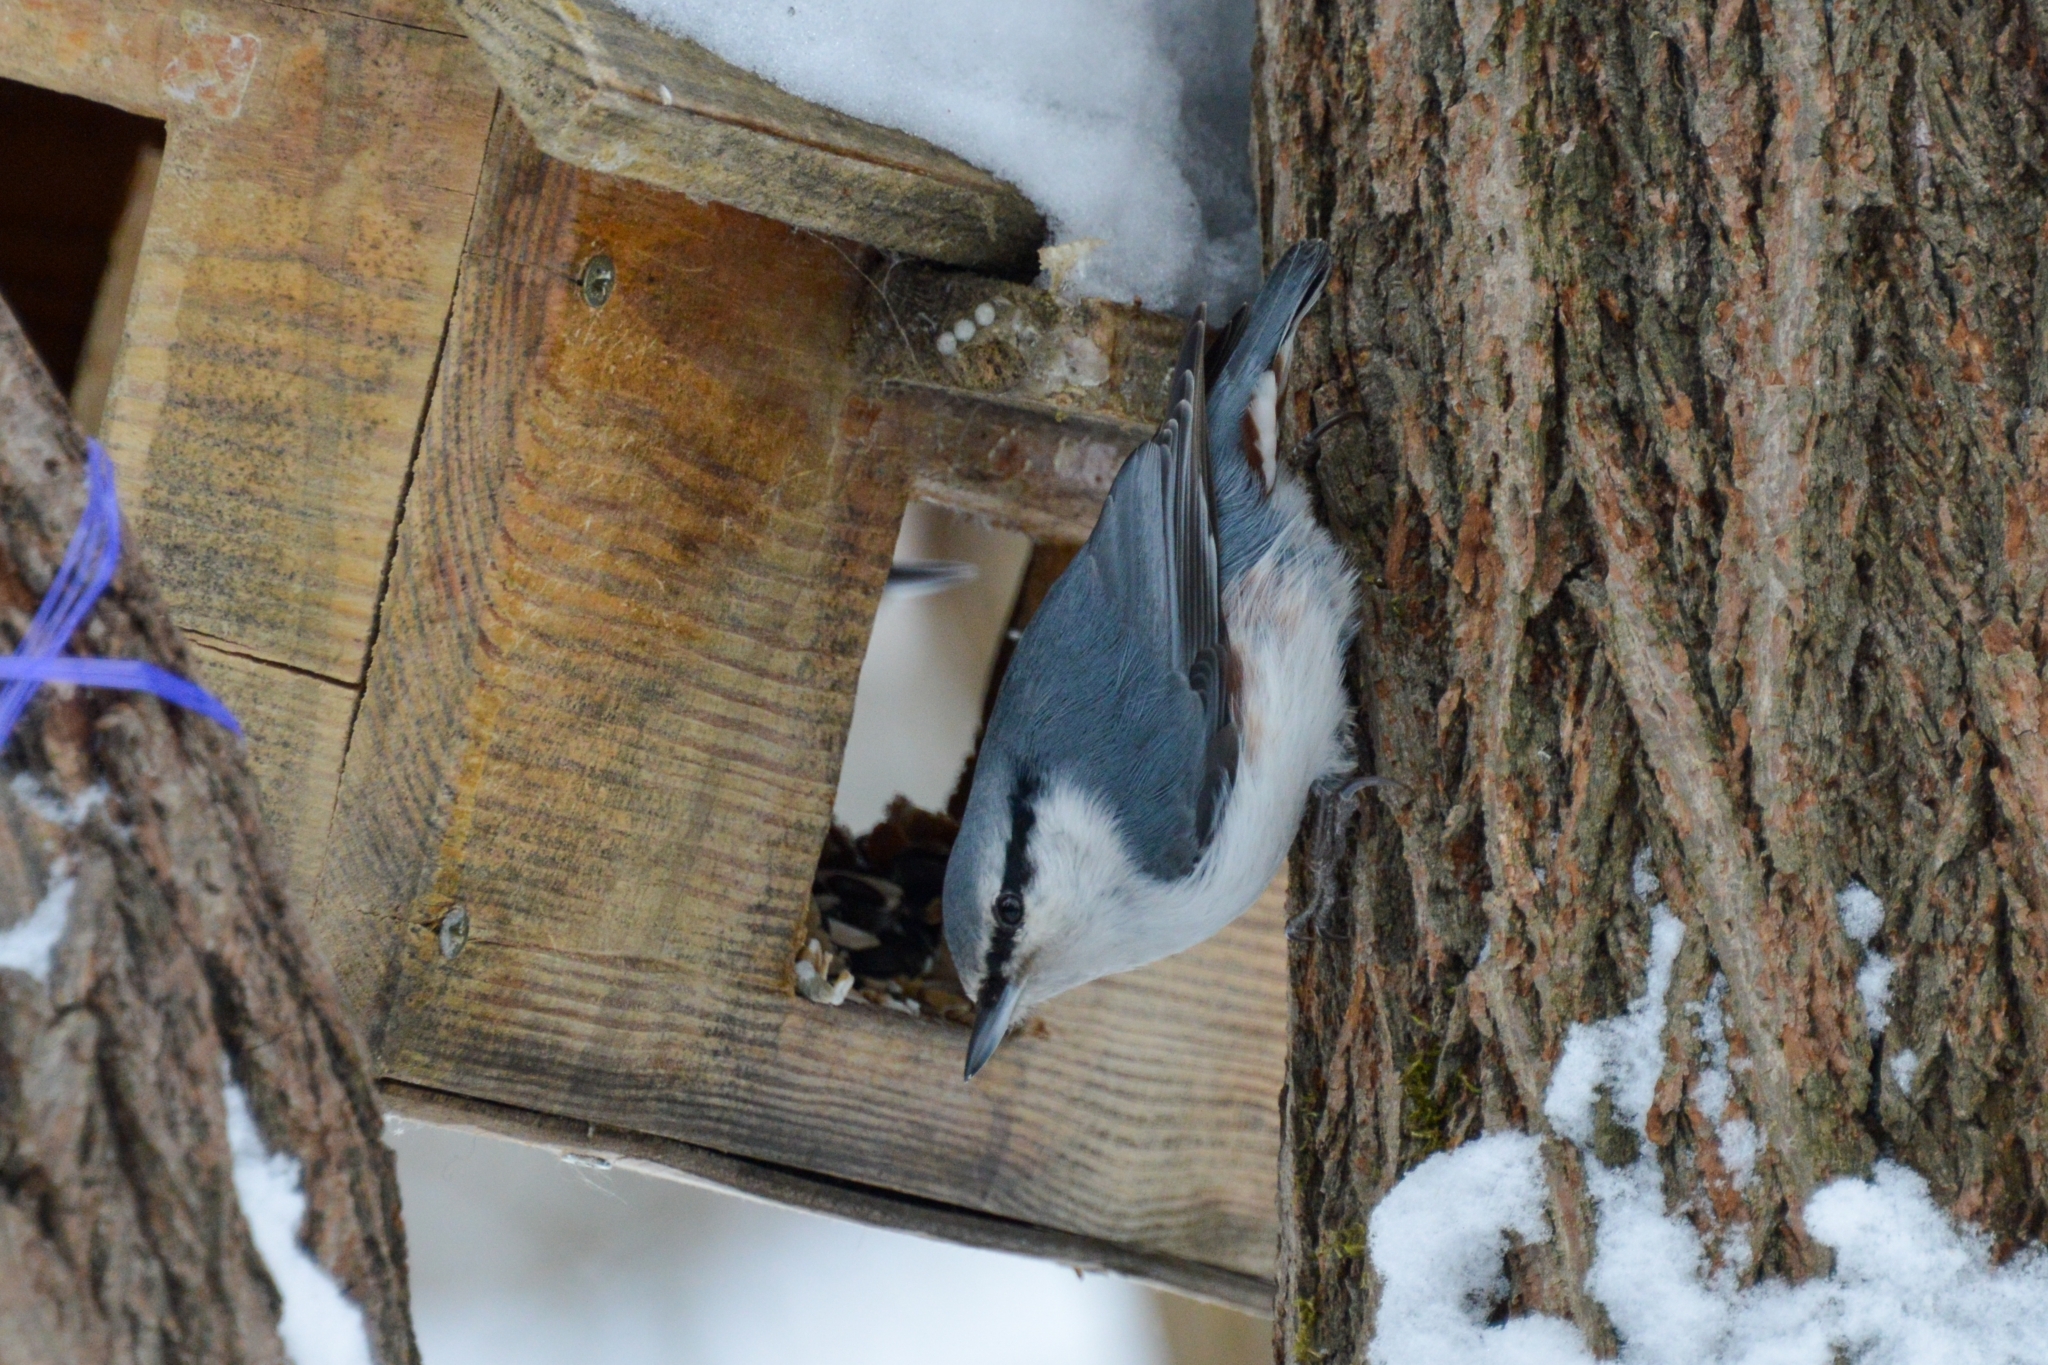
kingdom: Animalia
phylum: Chordata
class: Aves
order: Passeriformes
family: Sittidae
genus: Sitta
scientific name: Sitta europaea
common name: Eurasian nuthatch
